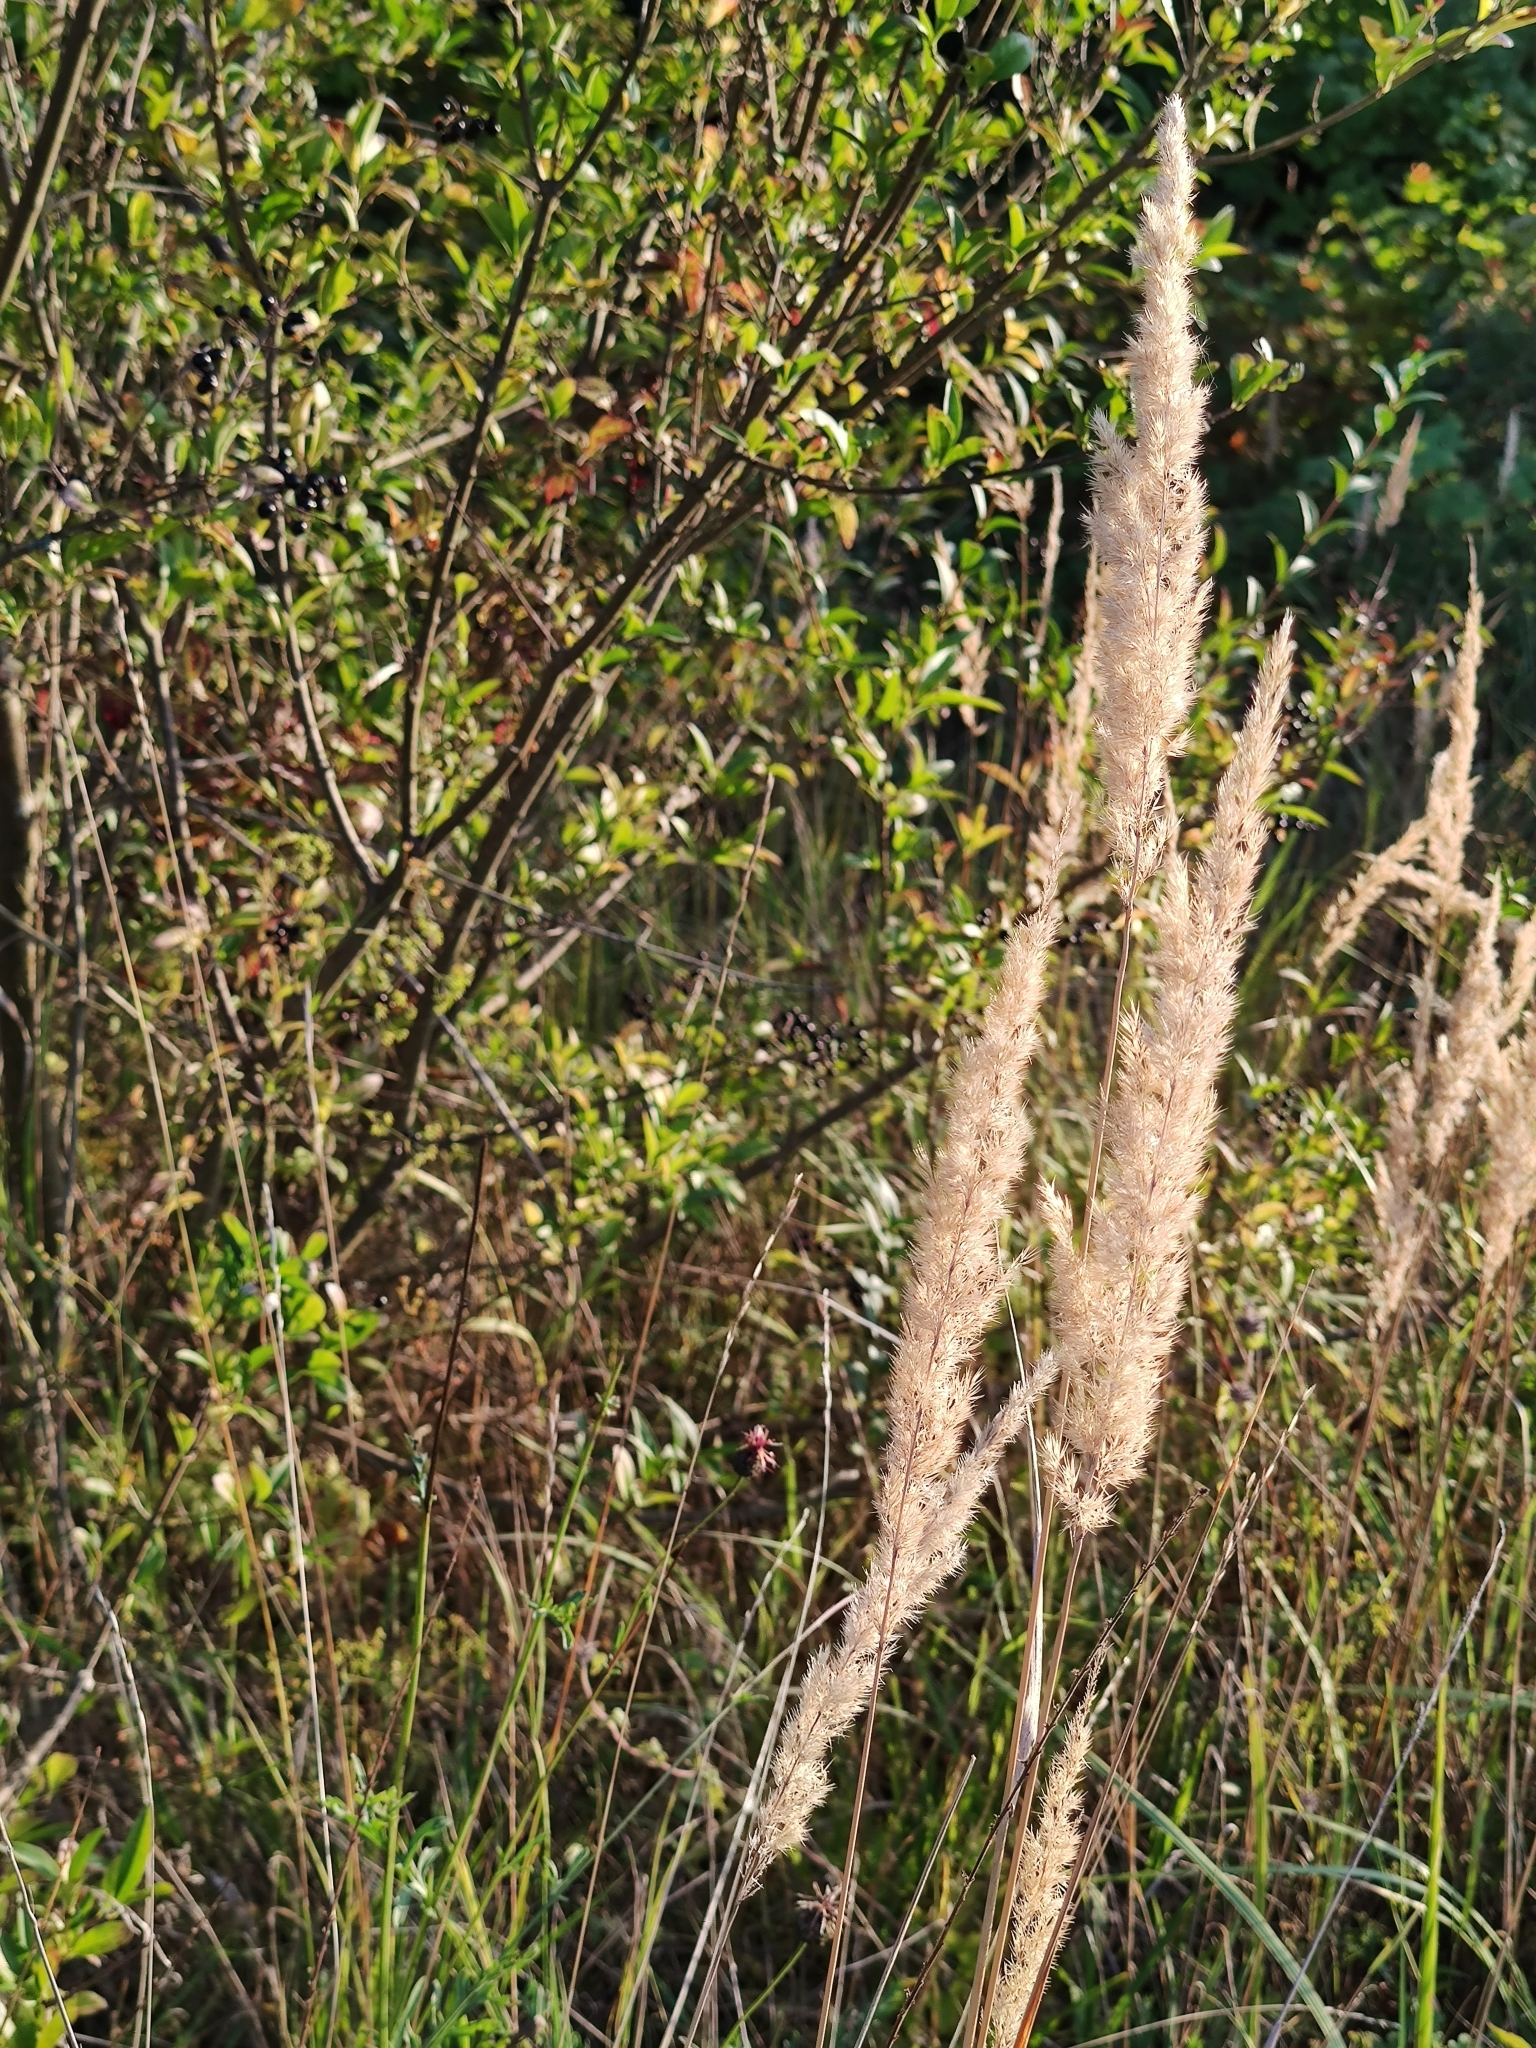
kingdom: Plantae
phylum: Tracheophyta
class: Liliopsida
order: Poales
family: Poaceae
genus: Calamagrostis
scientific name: Calamagrostis epigejos
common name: Wood small-reed
